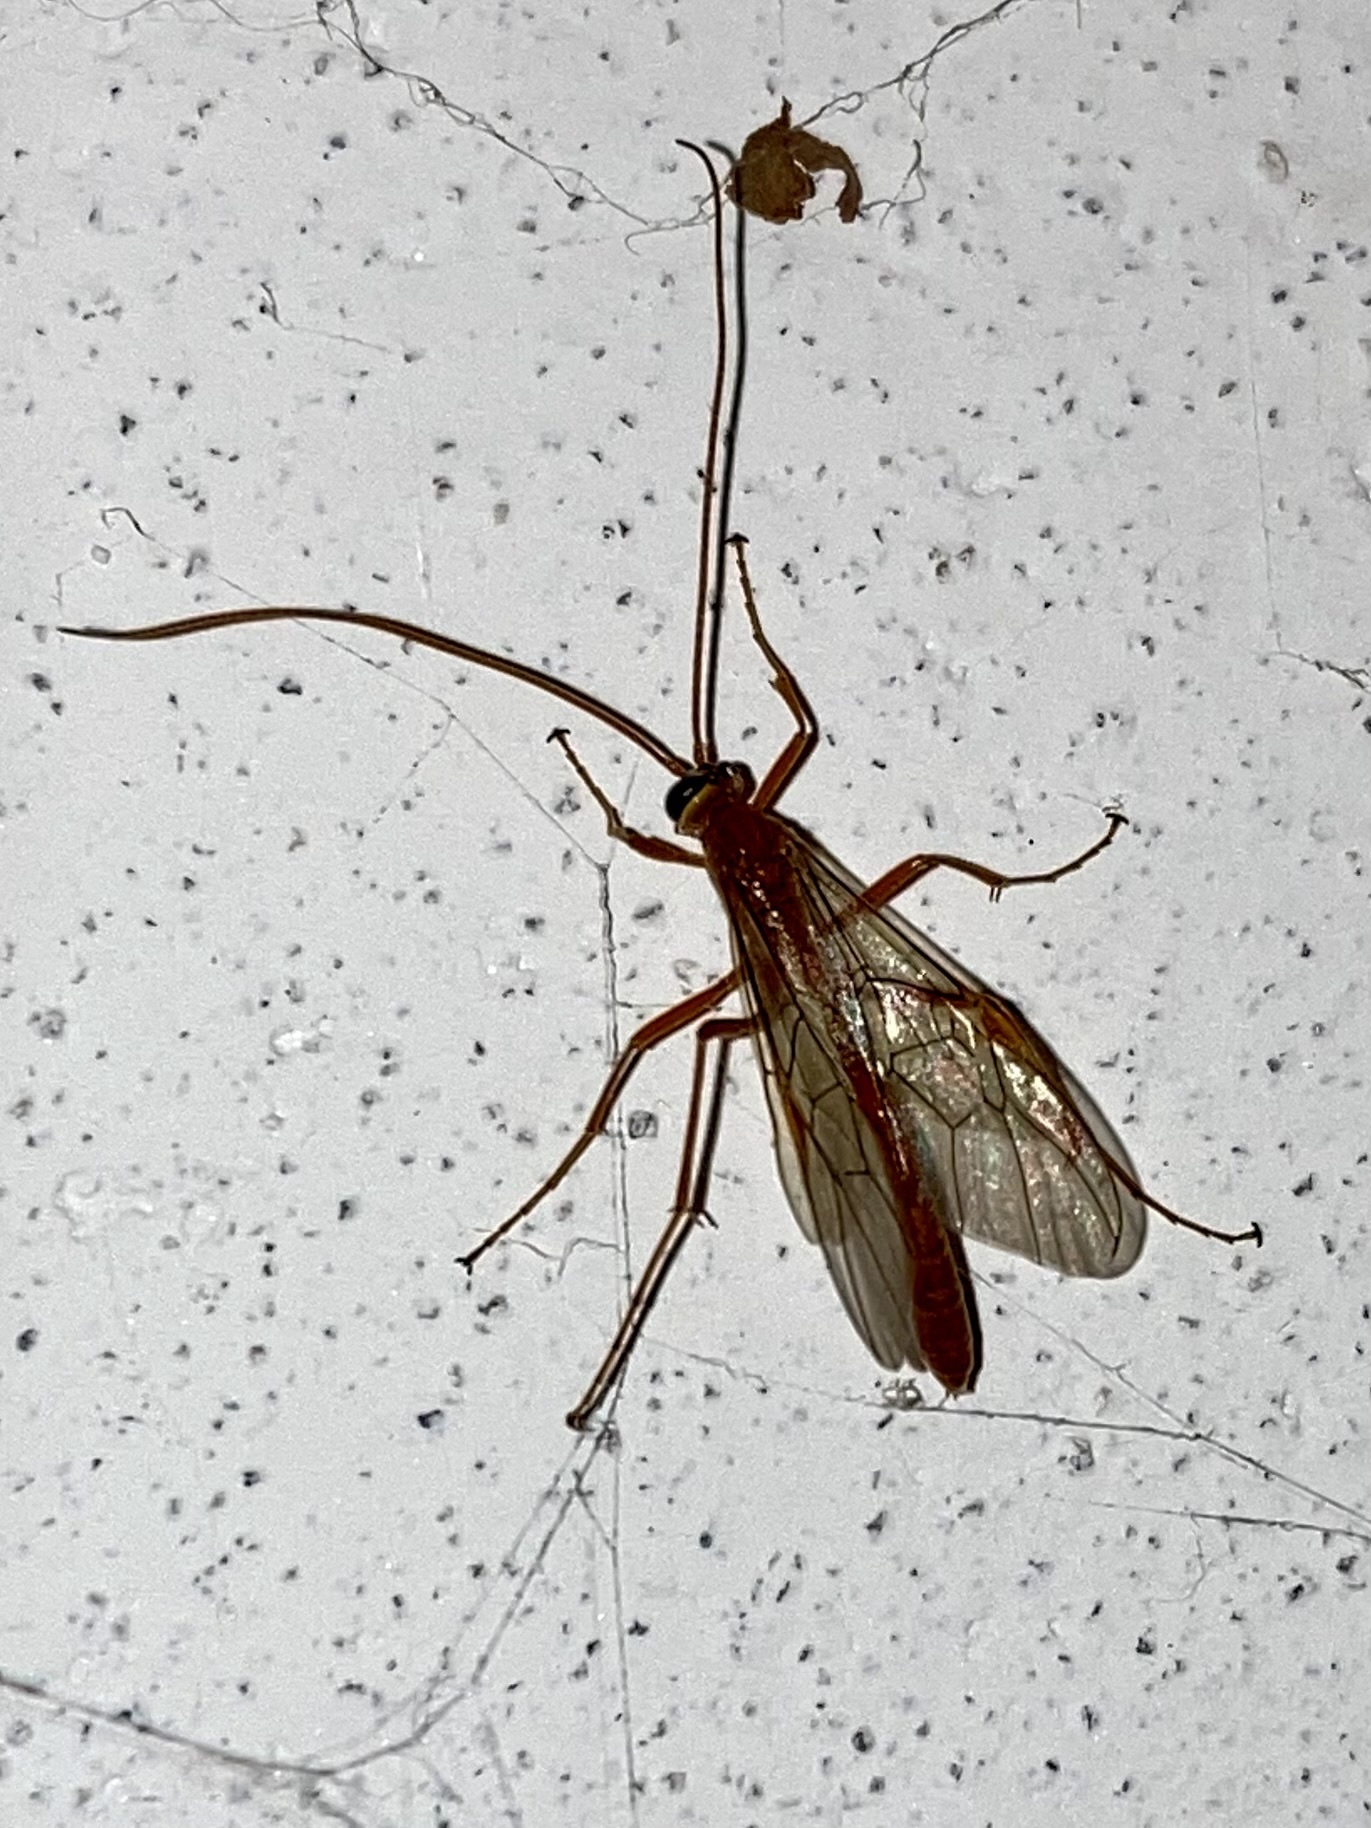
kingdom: Animalia
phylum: Arthropoda
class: Insecta
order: Hymenoptera
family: Ichneumonidae
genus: Ophion
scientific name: Ophion
